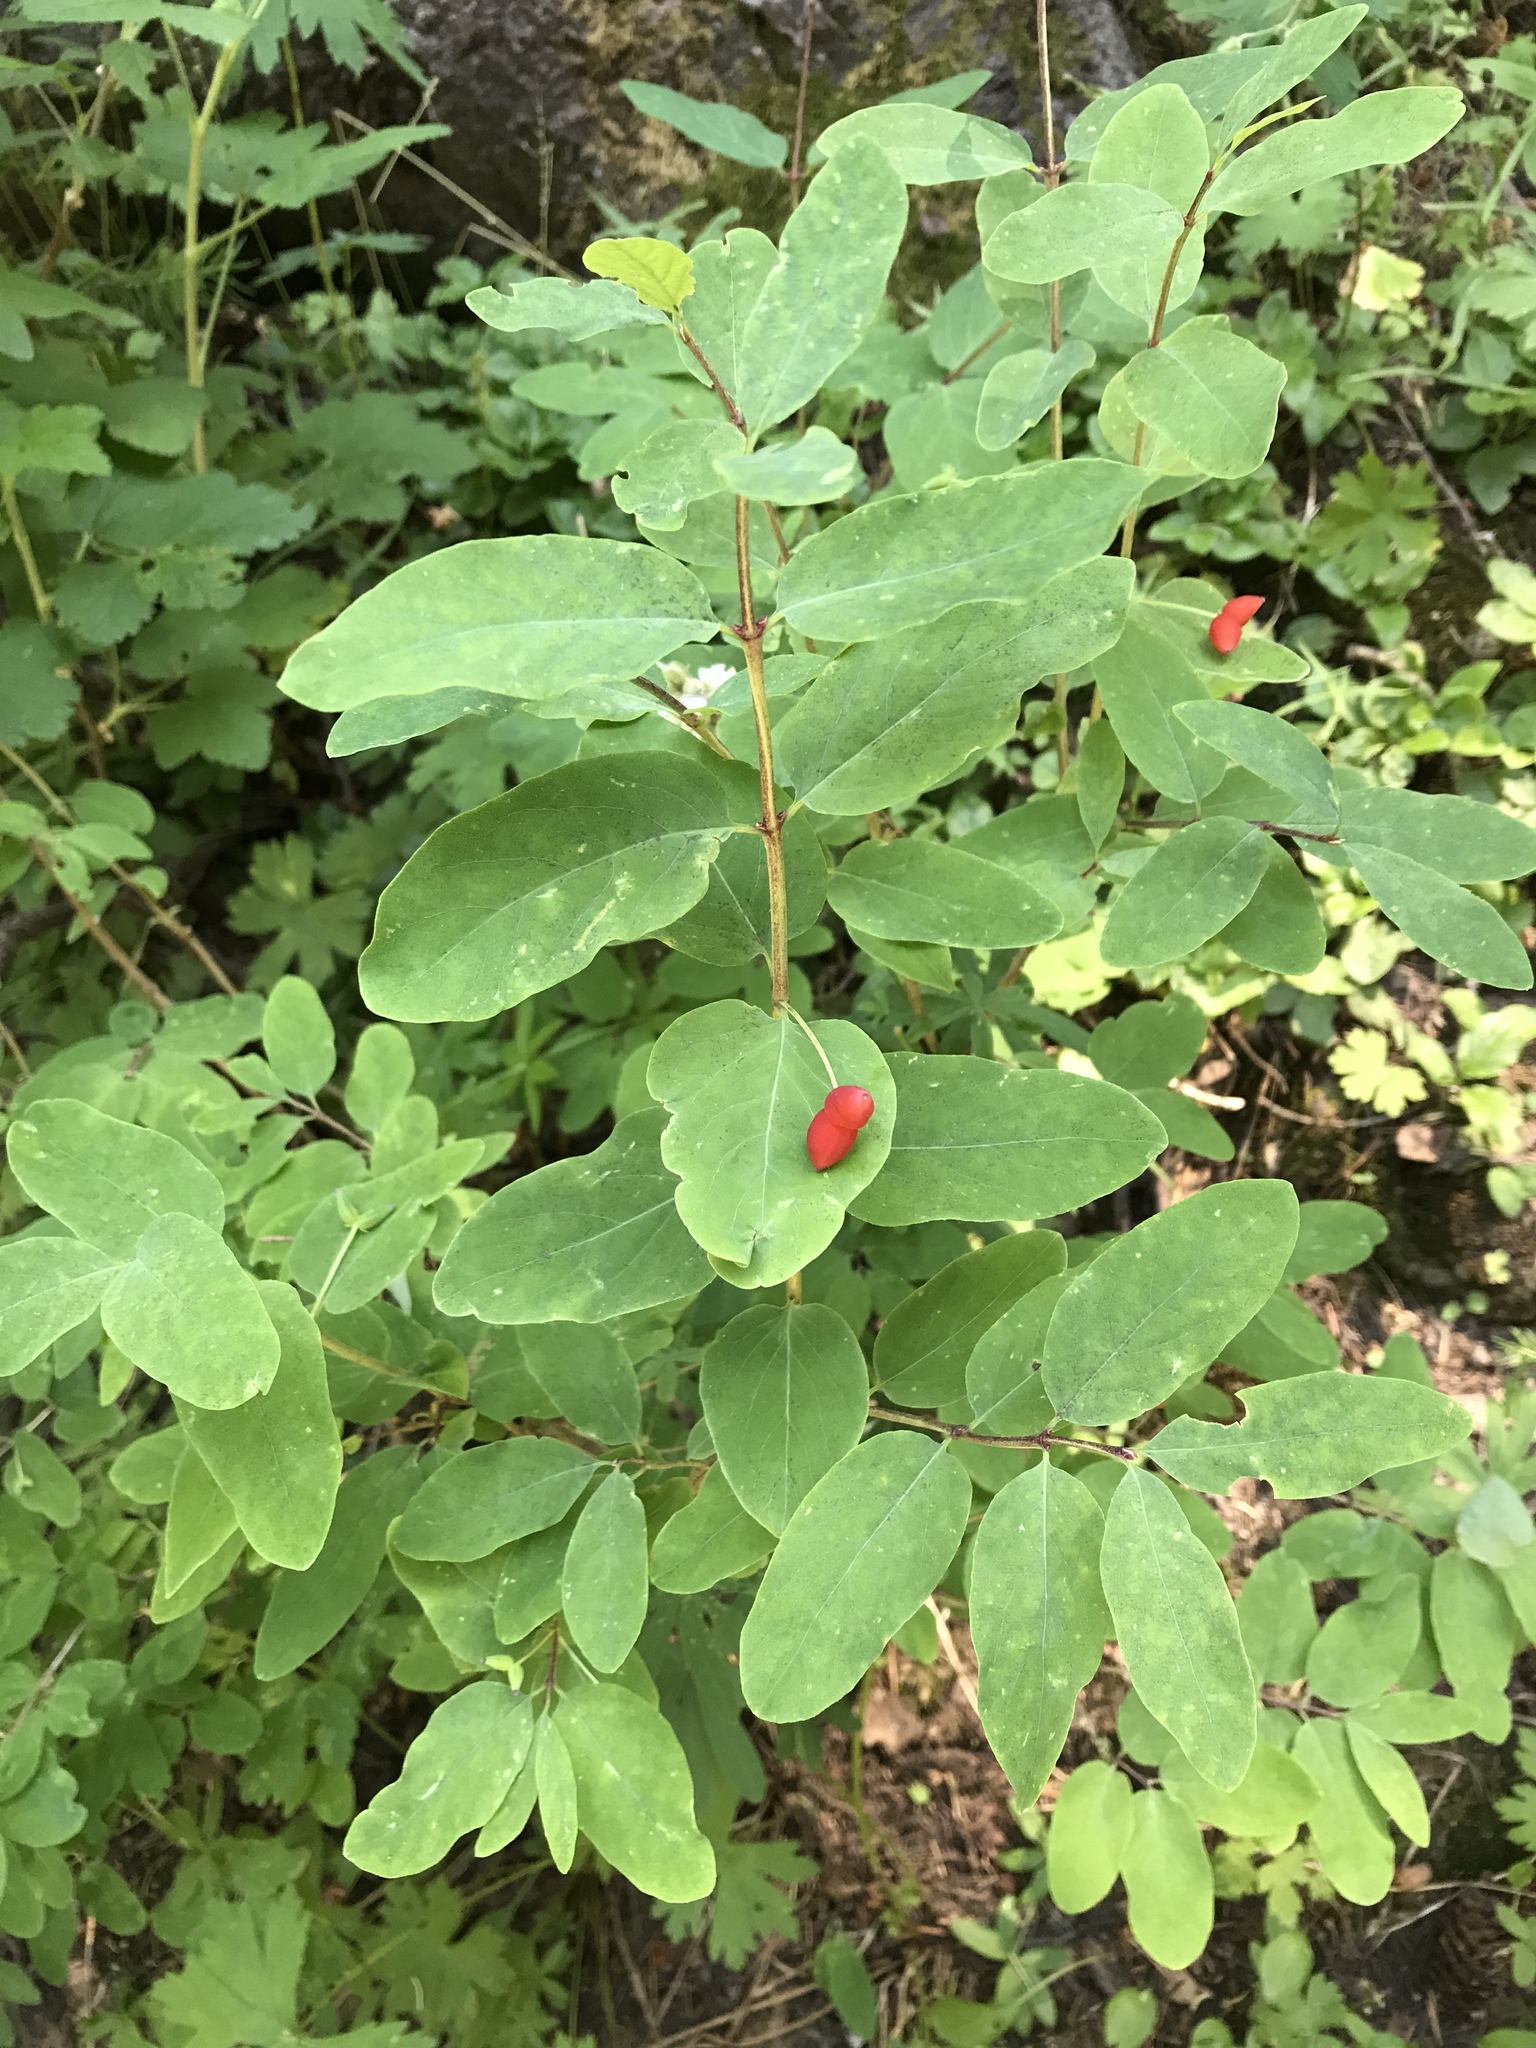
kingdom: Plantae
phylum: Tracheophyta
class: Magnoliopsida
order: Dipsacales
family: Caprifoliaceae
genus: Lonicera
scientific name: Lonicera utahensis
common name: Utah honeysuckle
